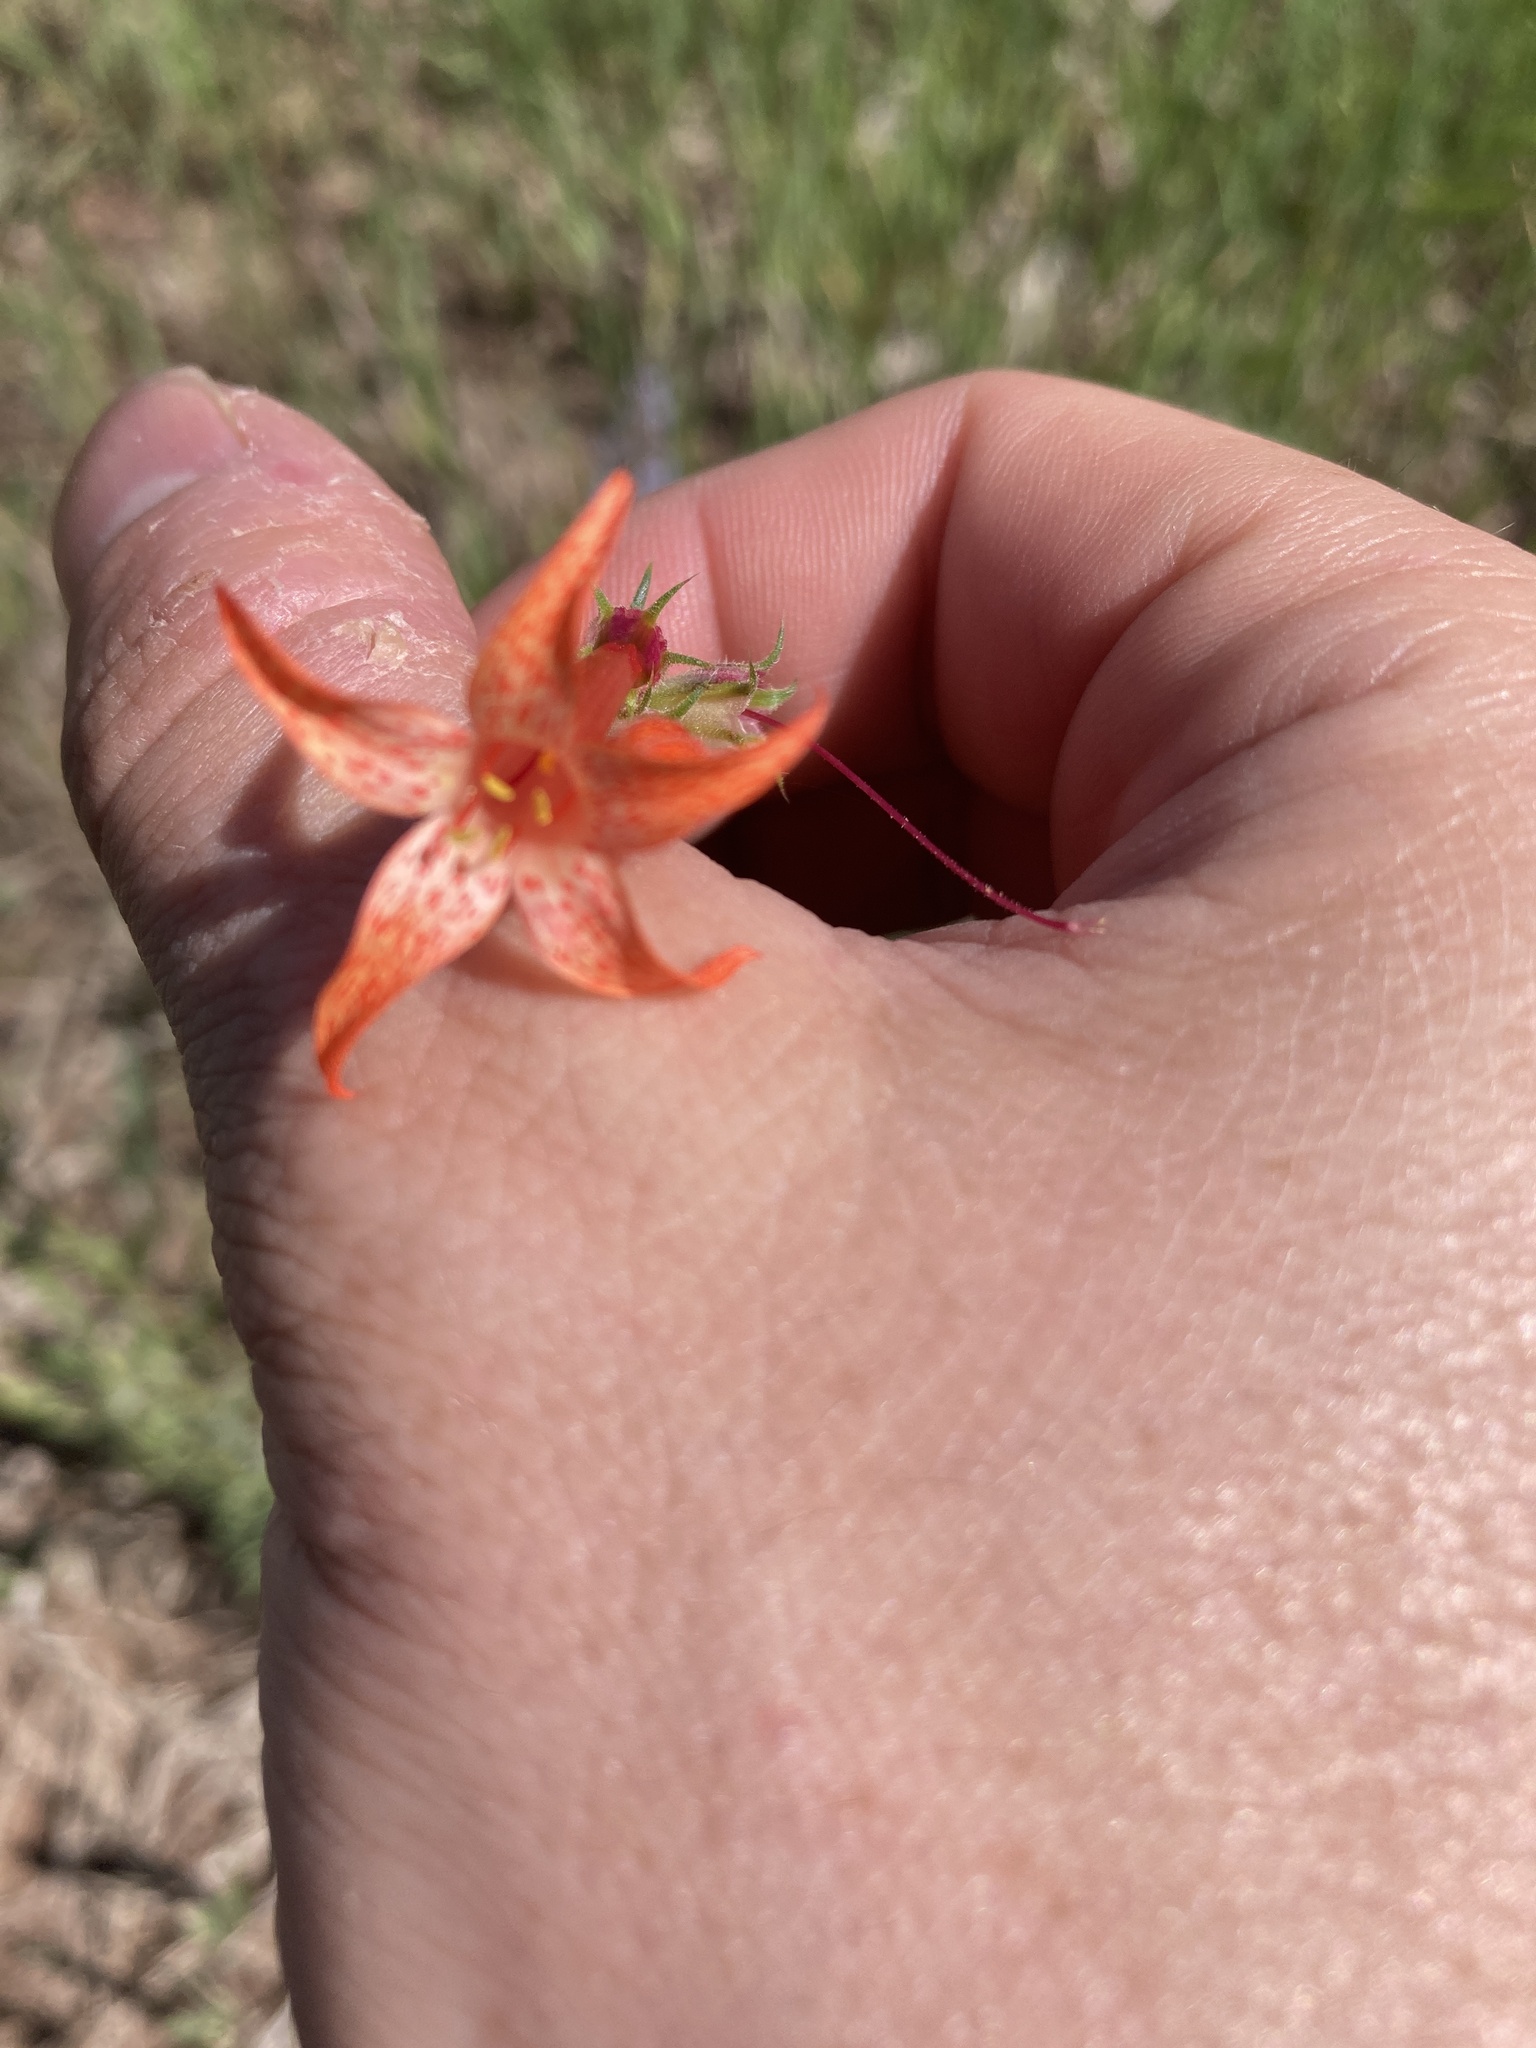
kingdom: Plantae
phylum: Tracheophyta
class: Magnoliopsida
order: Ericales
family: Polemoniaceae
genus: Ipomopsis
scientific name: Ipomopsis aggregata
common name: Scarlet gilia
